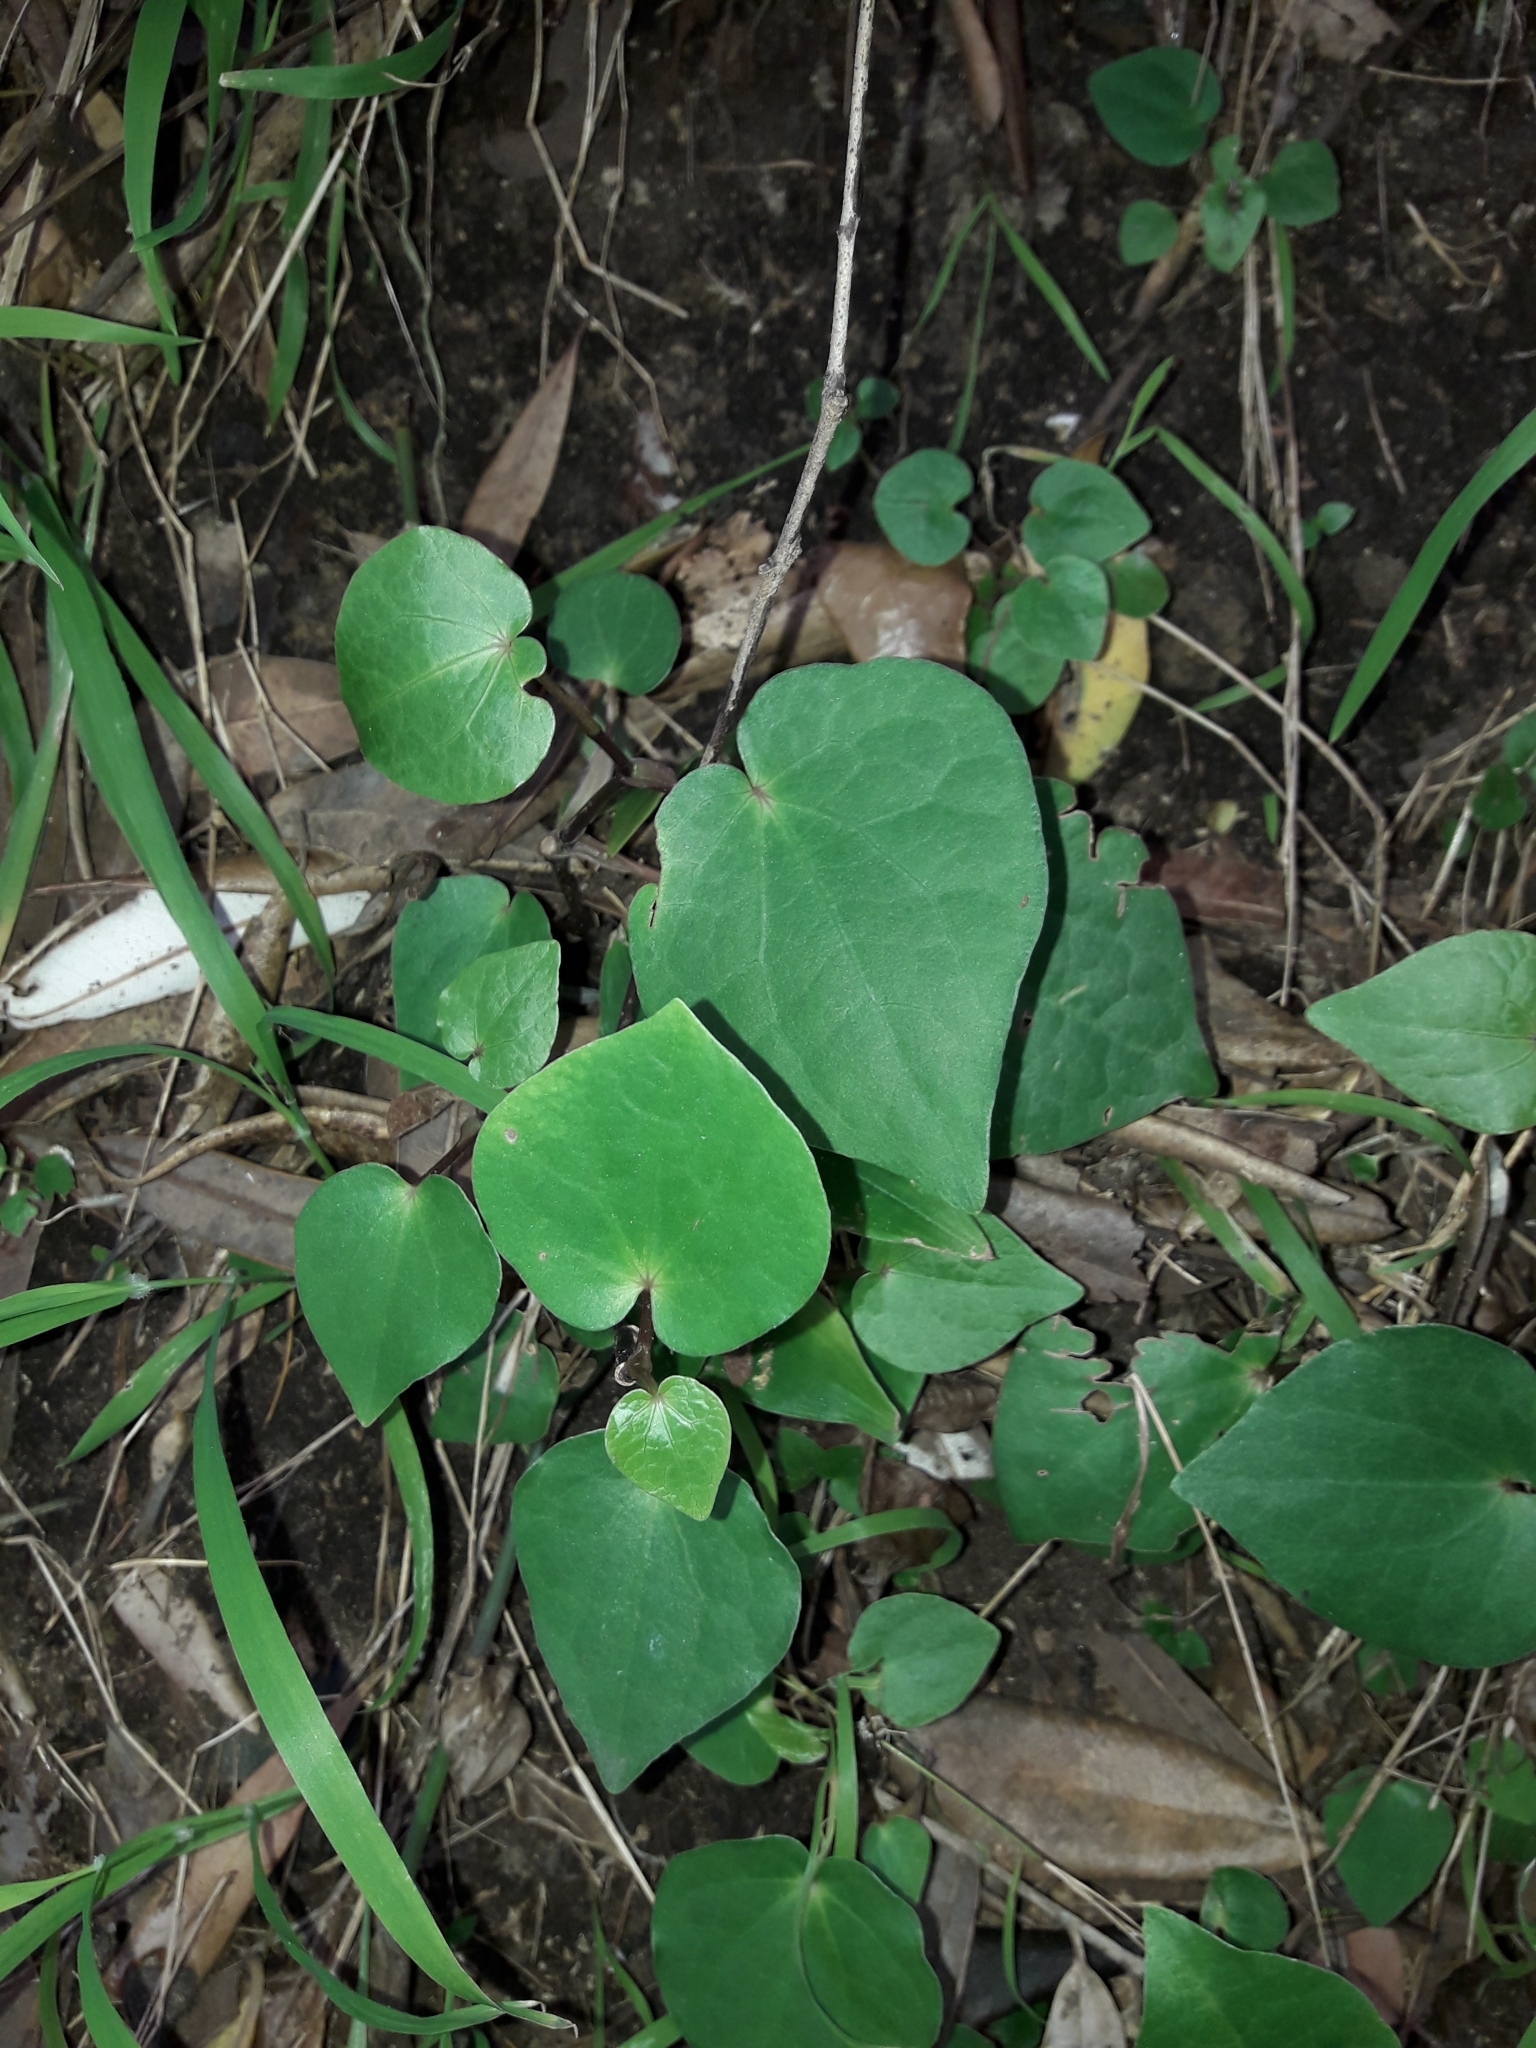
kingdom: Plantae
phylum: Tracheophyta
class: Magnoliopsida
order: Piperales
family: Piperaceae
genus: Macropiper
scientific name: Macropiper excelsum
